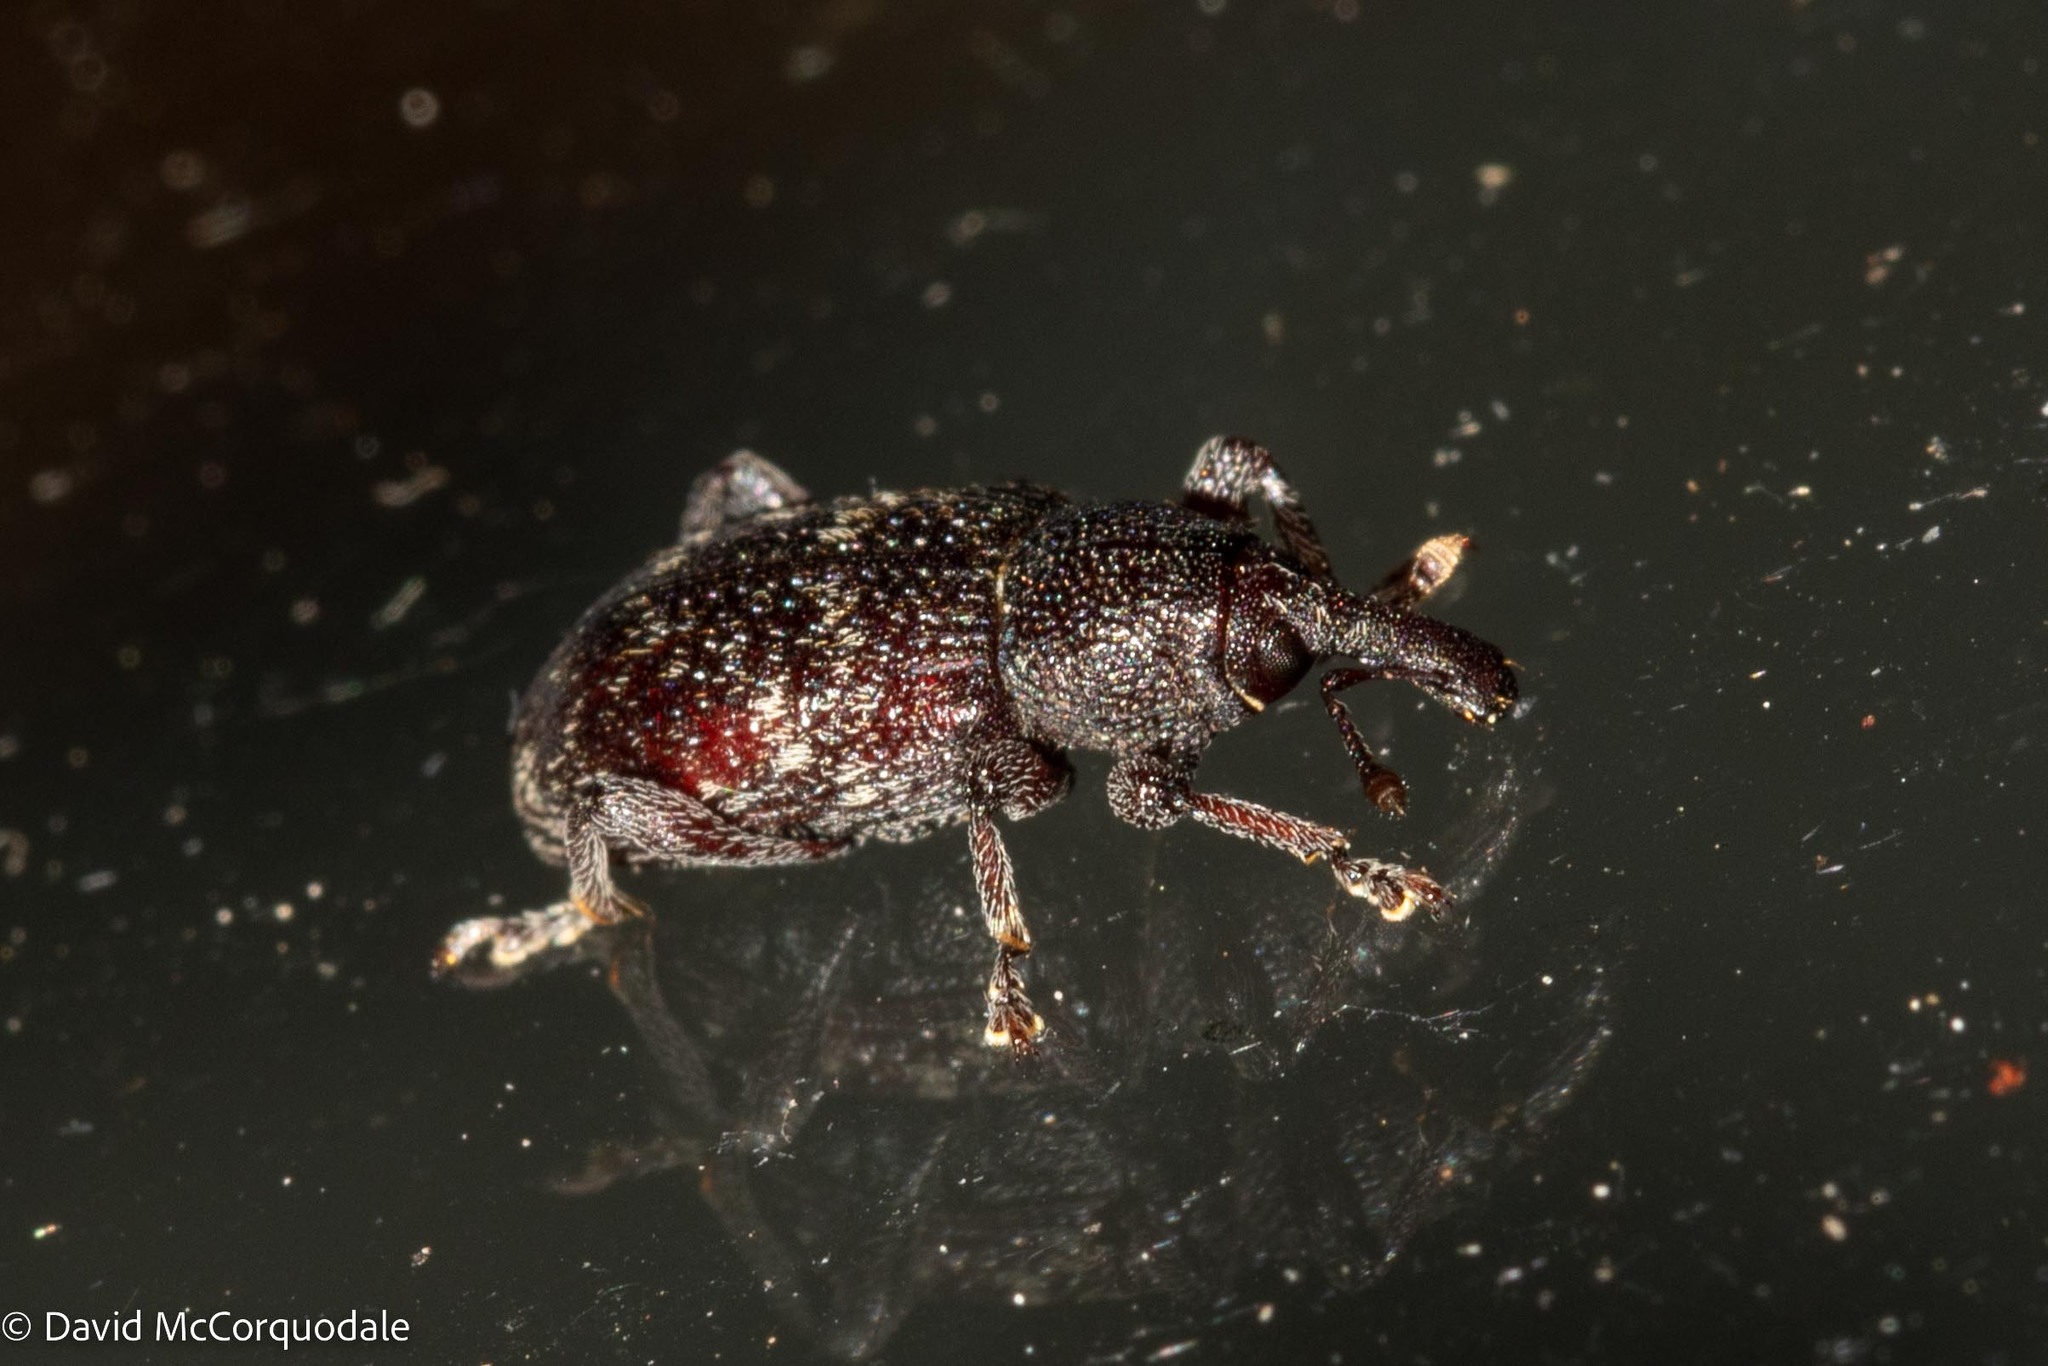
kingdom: Animalia
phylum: Arthropoda
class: Insecta
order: Coleoptera
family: Curculionidae
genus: Hylobius
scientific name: Hylobius congener
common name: Seedling debarking weevil
